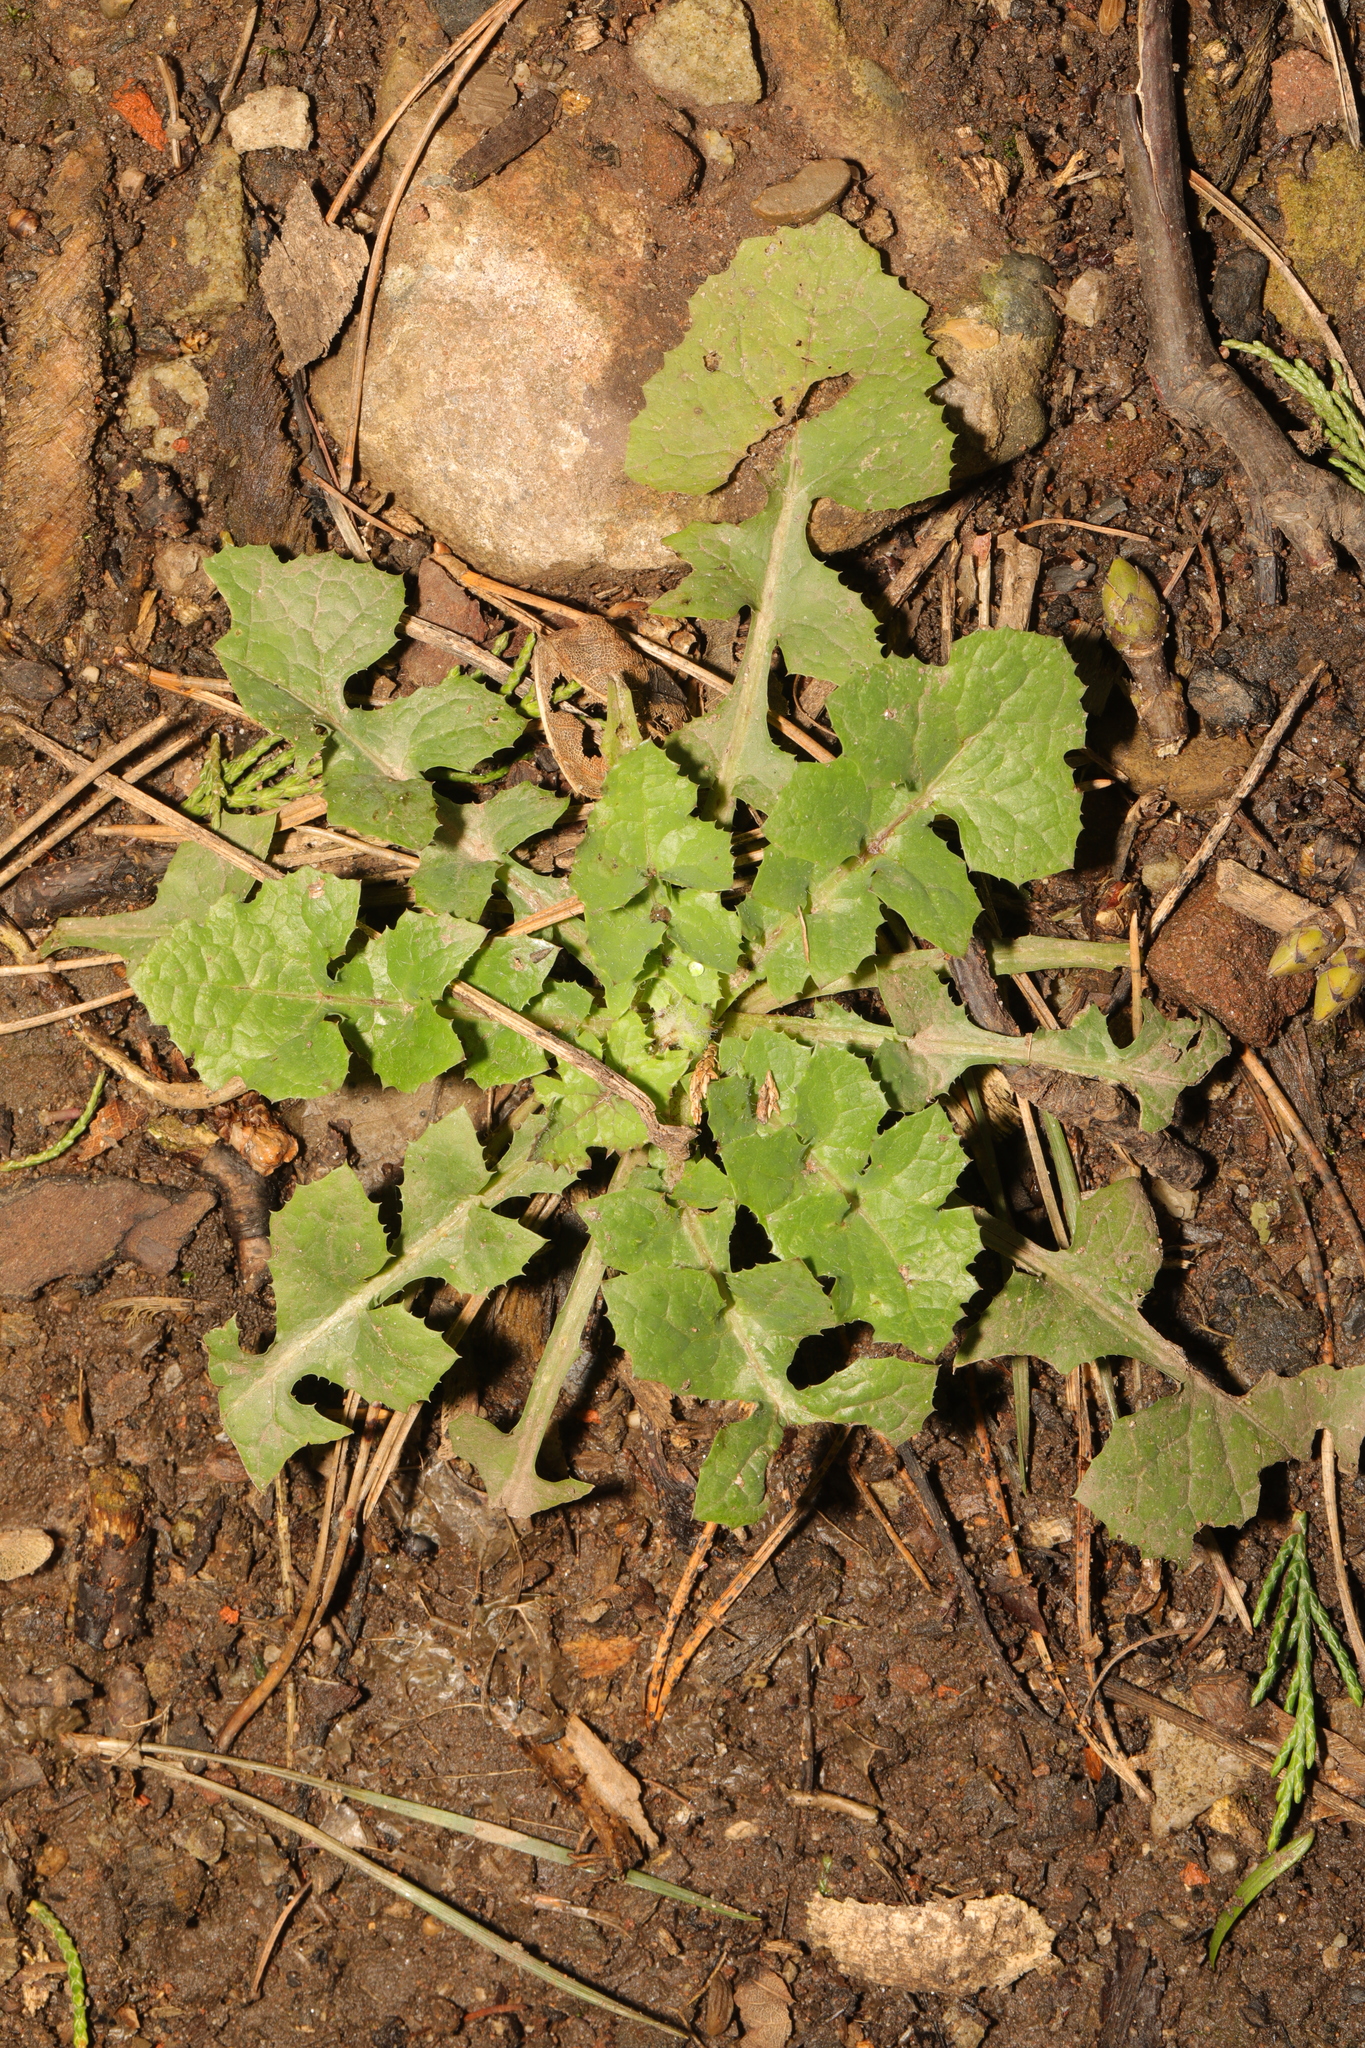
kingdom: Plantae
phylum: Tracheophyta
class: Magnoliopsida
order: Asterales
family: Asteraceae
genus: Sonchus
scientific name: Sonchus oleraceus
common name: Common sowthistle
